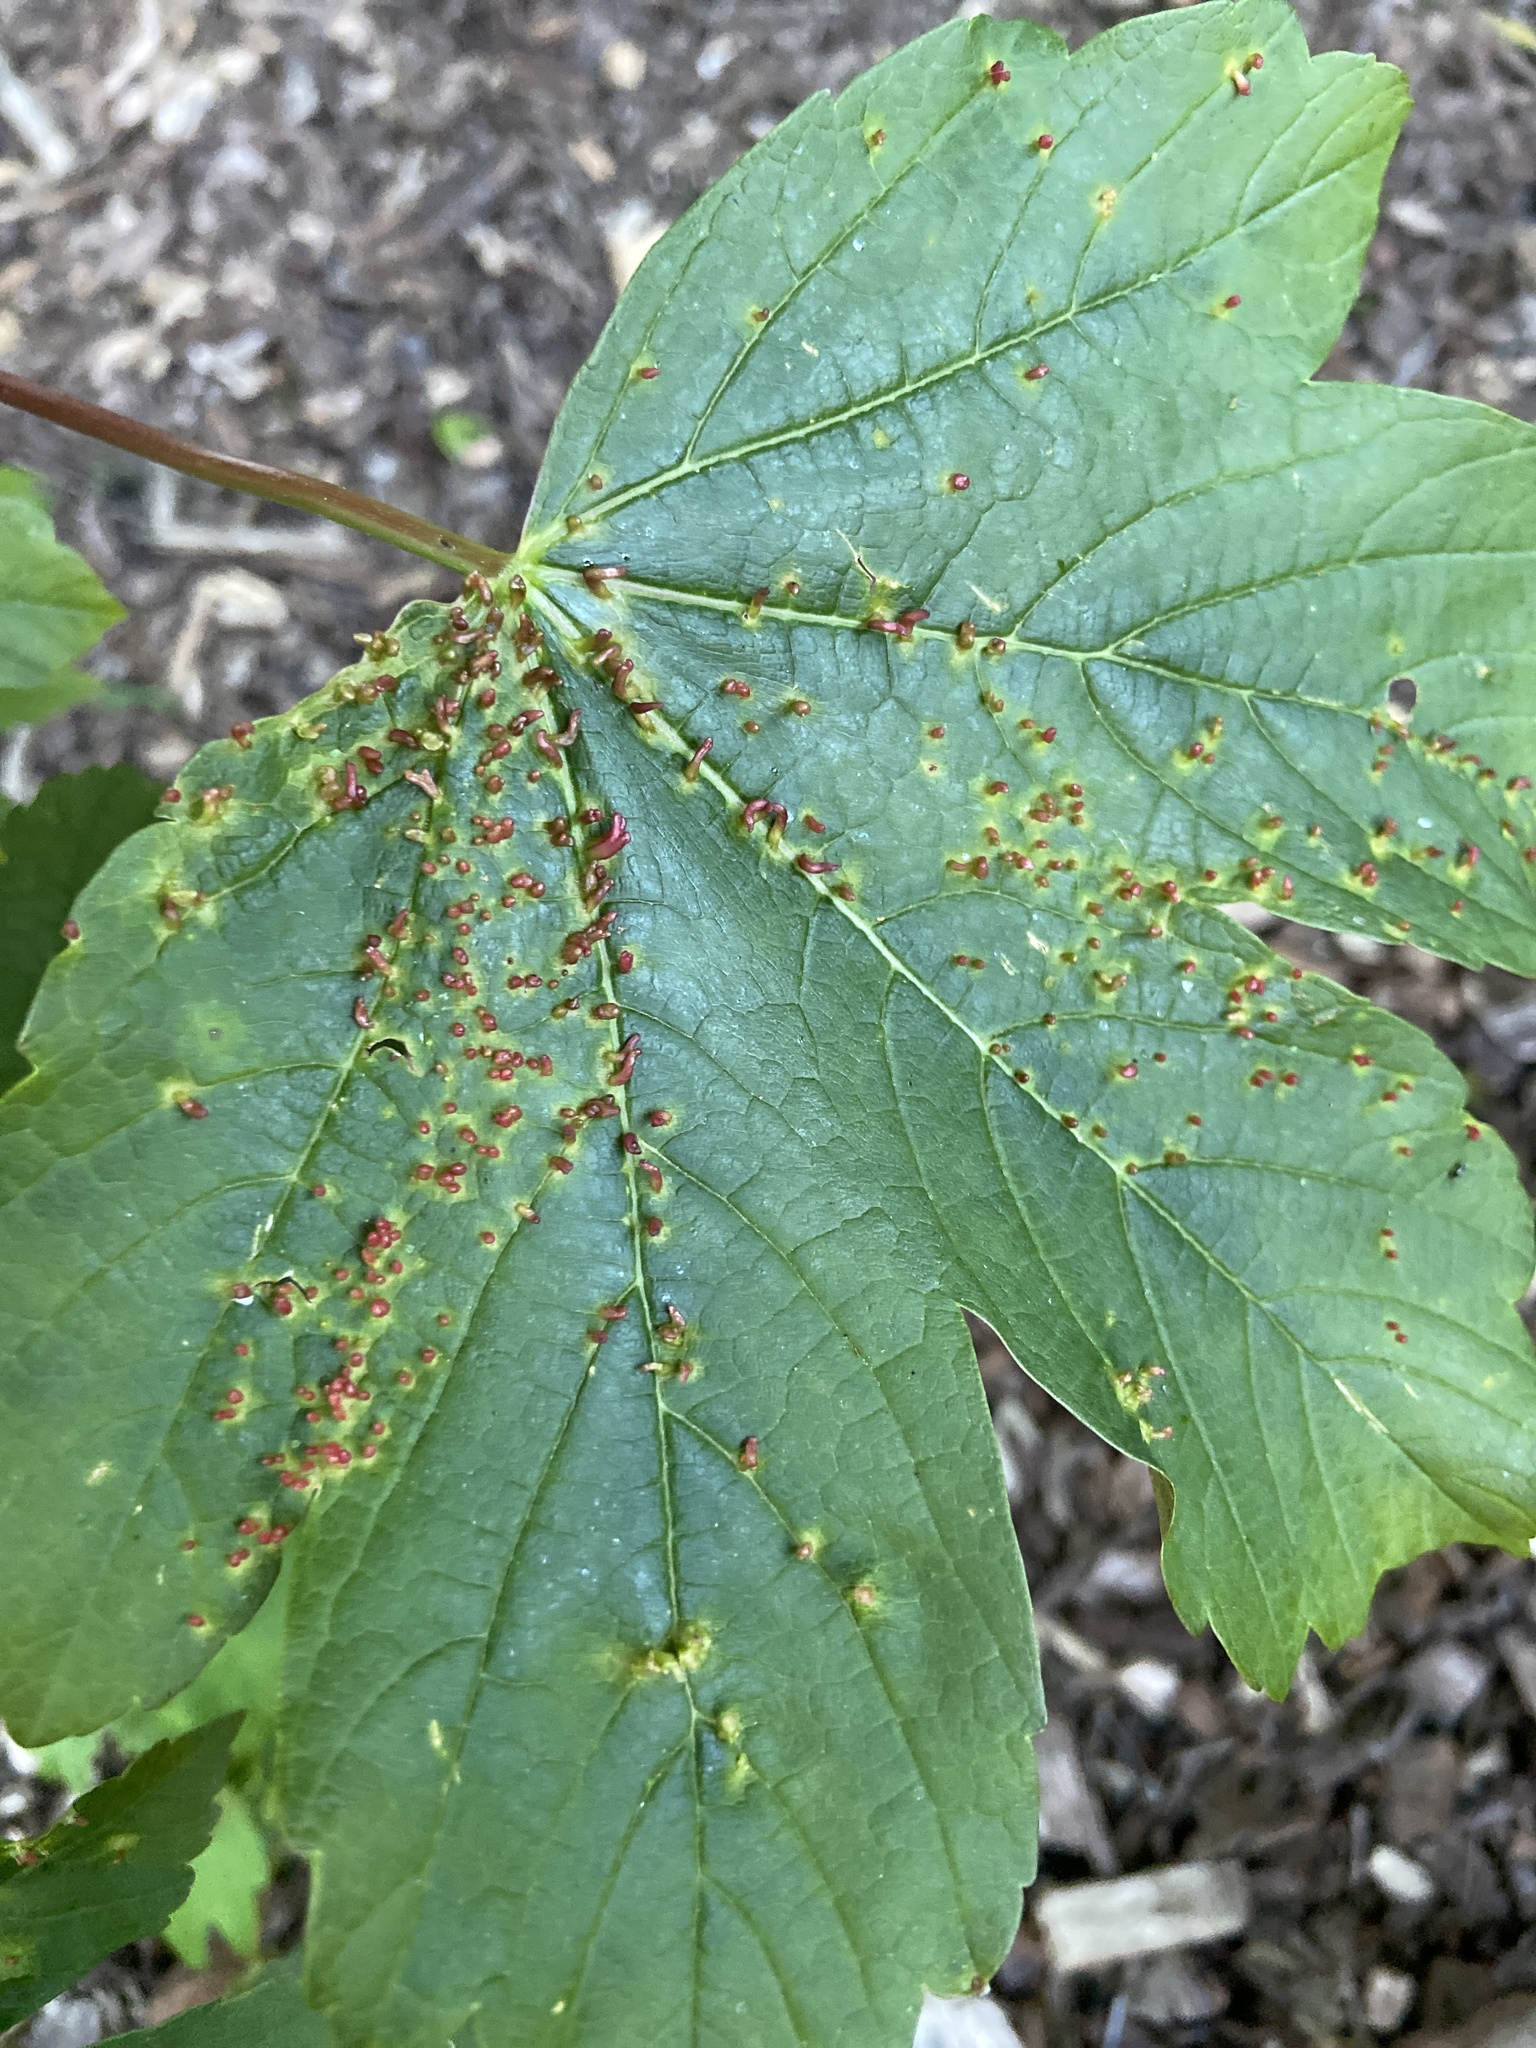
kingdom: Animalia
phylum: Arthropoda
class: Arachnida
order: Trombidiformes
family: Eriophyidae
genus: Aceria
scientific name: Aceria cephaloneus
